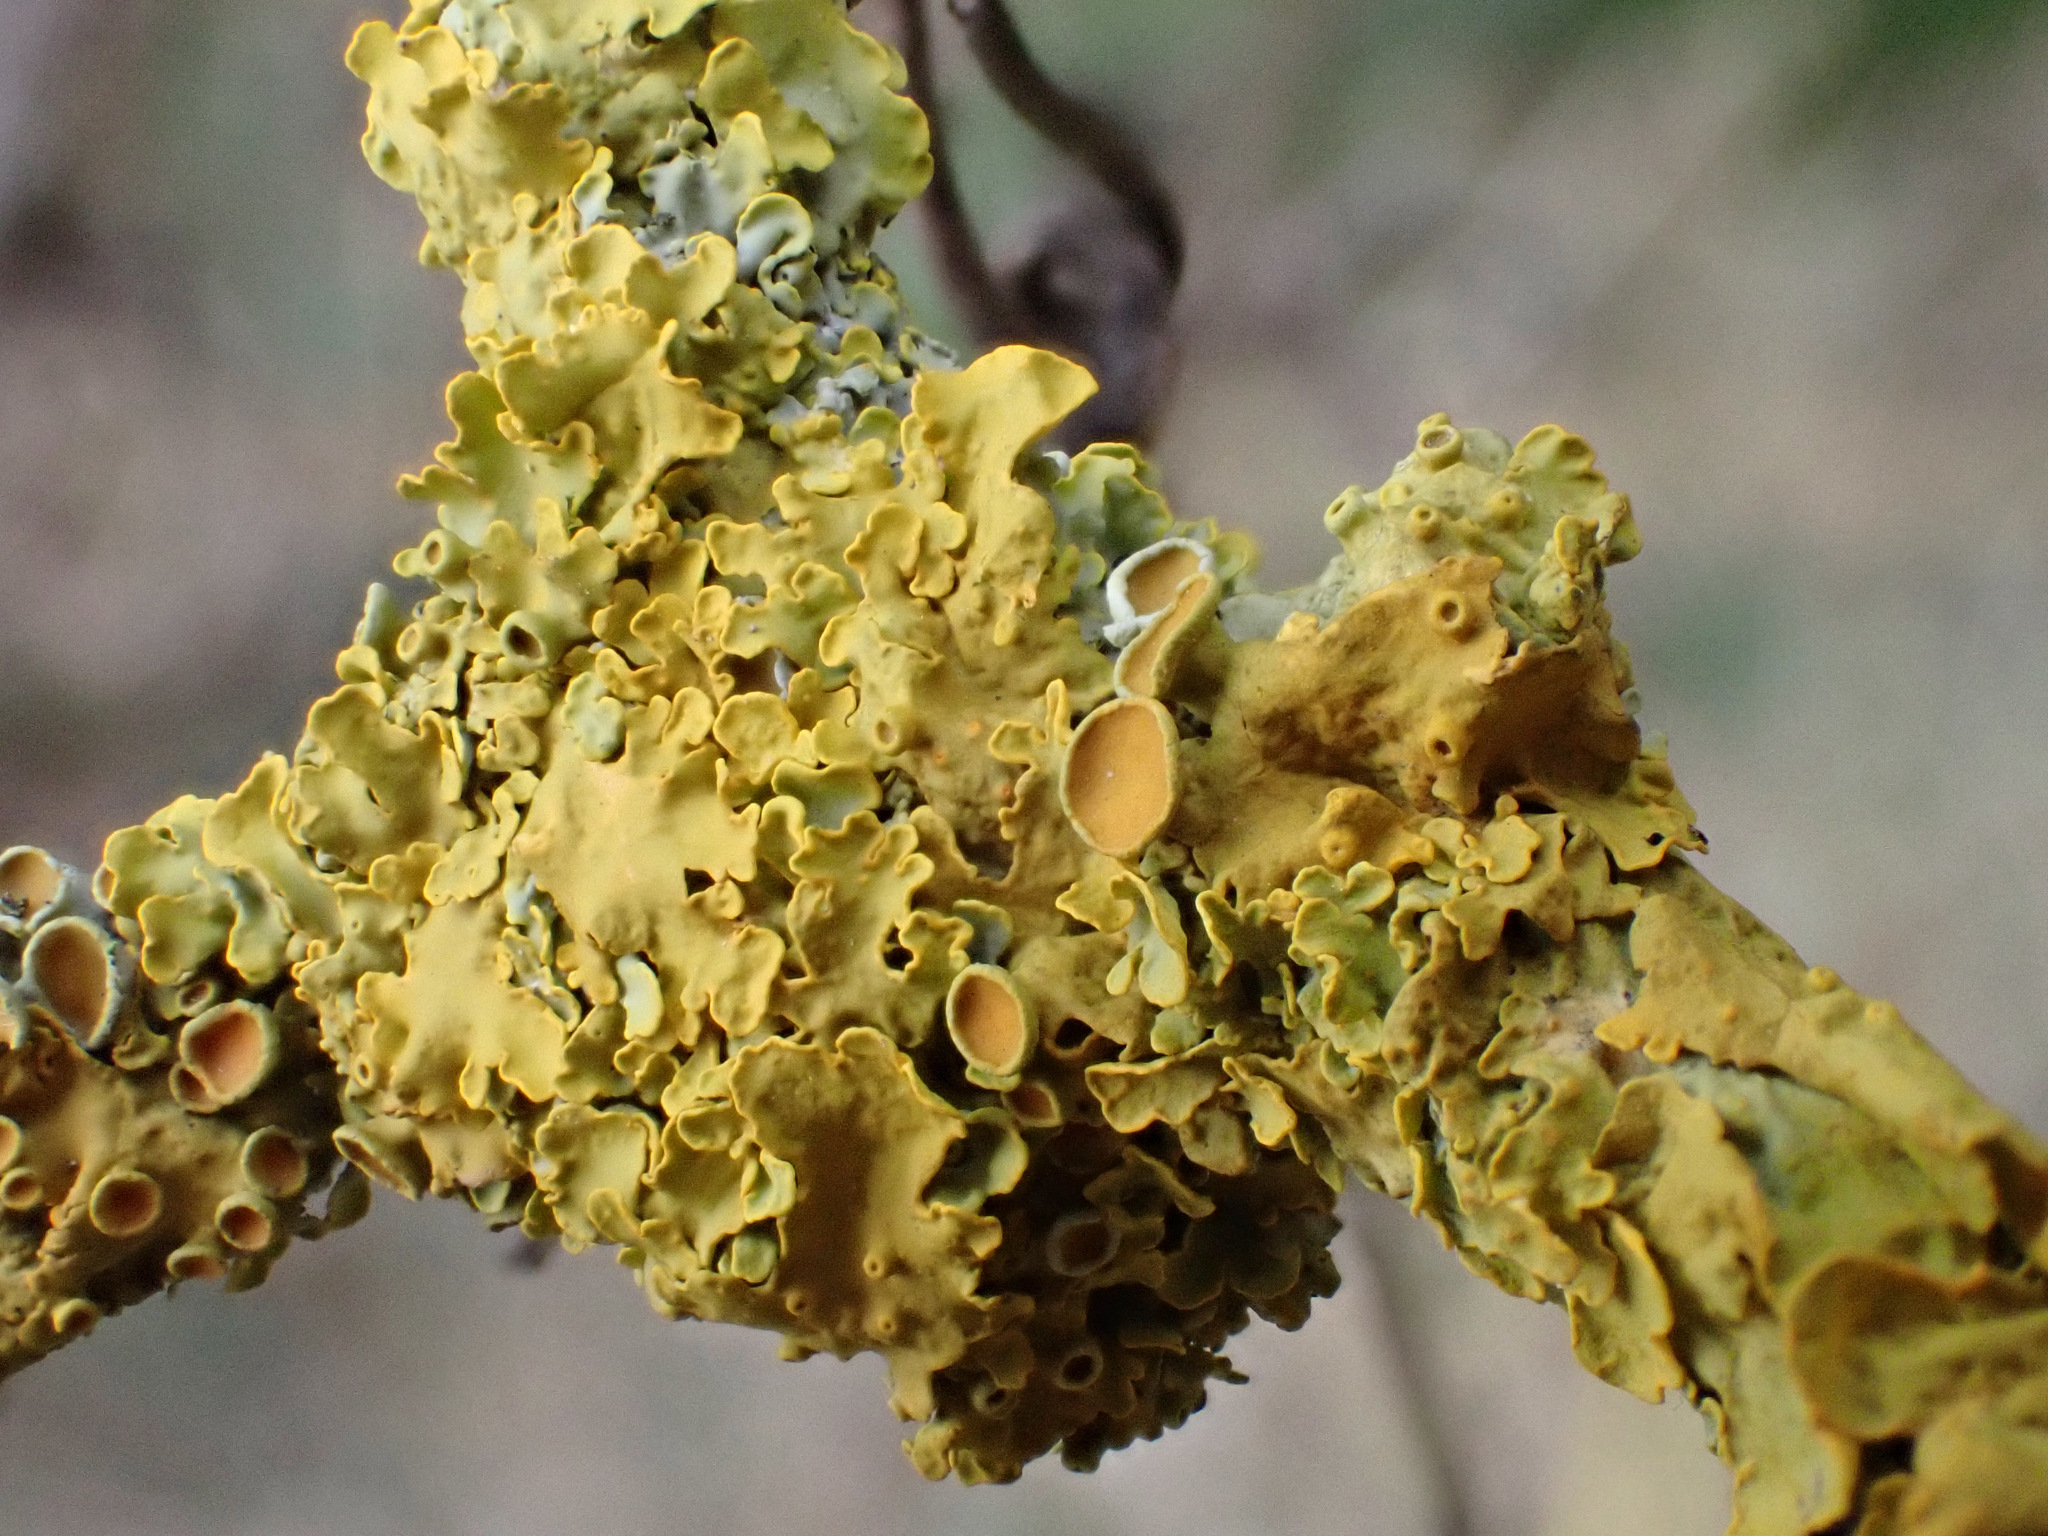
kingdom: Fungi
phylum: Ascomycota
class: Lecanoromycetes
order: Teloschistales
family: Teloschistaceae
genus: Xanthoria
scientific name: Xanthoria parietina
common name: Common orange lichen
